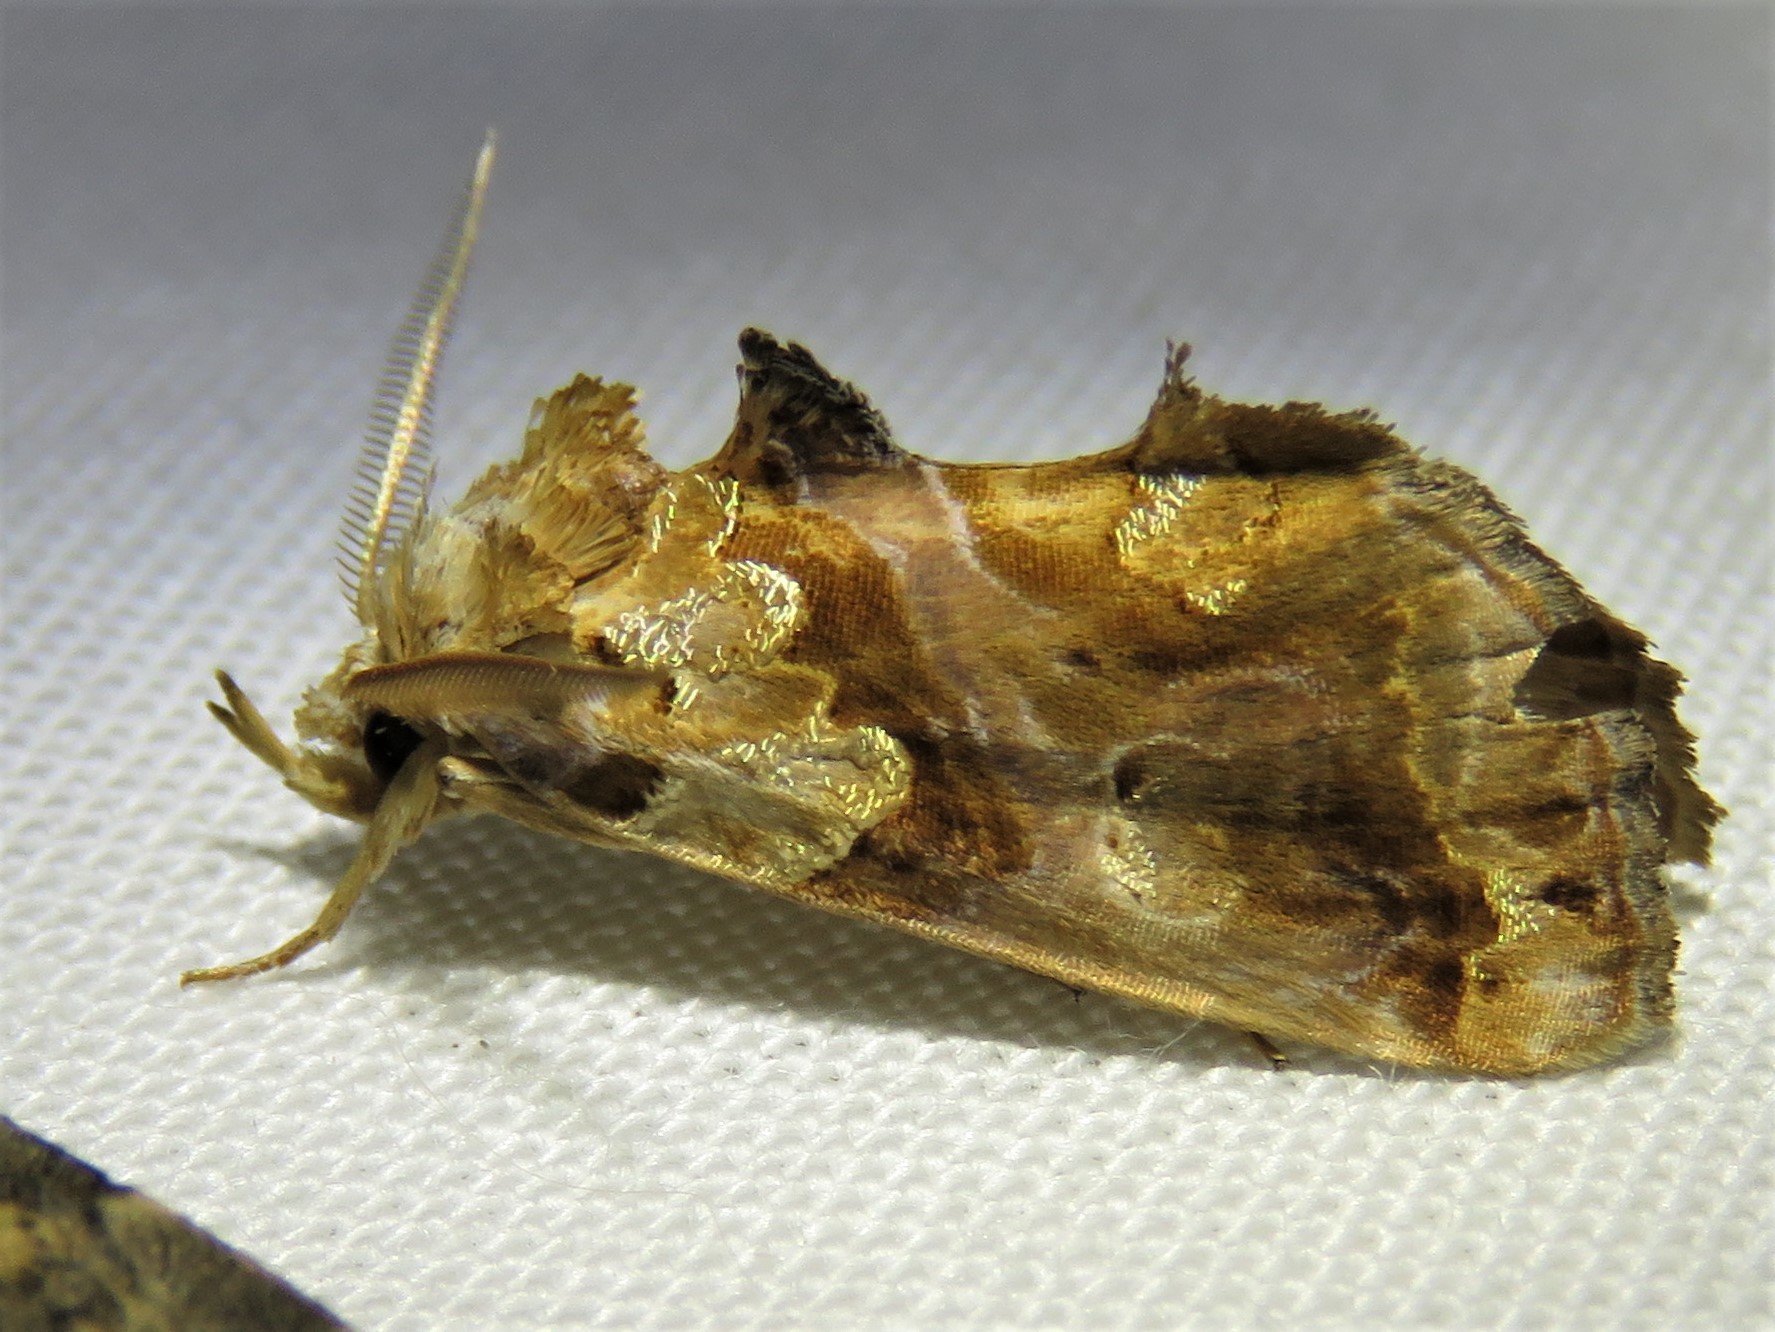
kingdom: Animalia
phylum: Arthropoda
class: Insecta
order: Lepidoptera
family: Erebidae
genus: Plusiodonta
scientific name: Plusiodonta compressipalpis
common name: Moonseed moth
